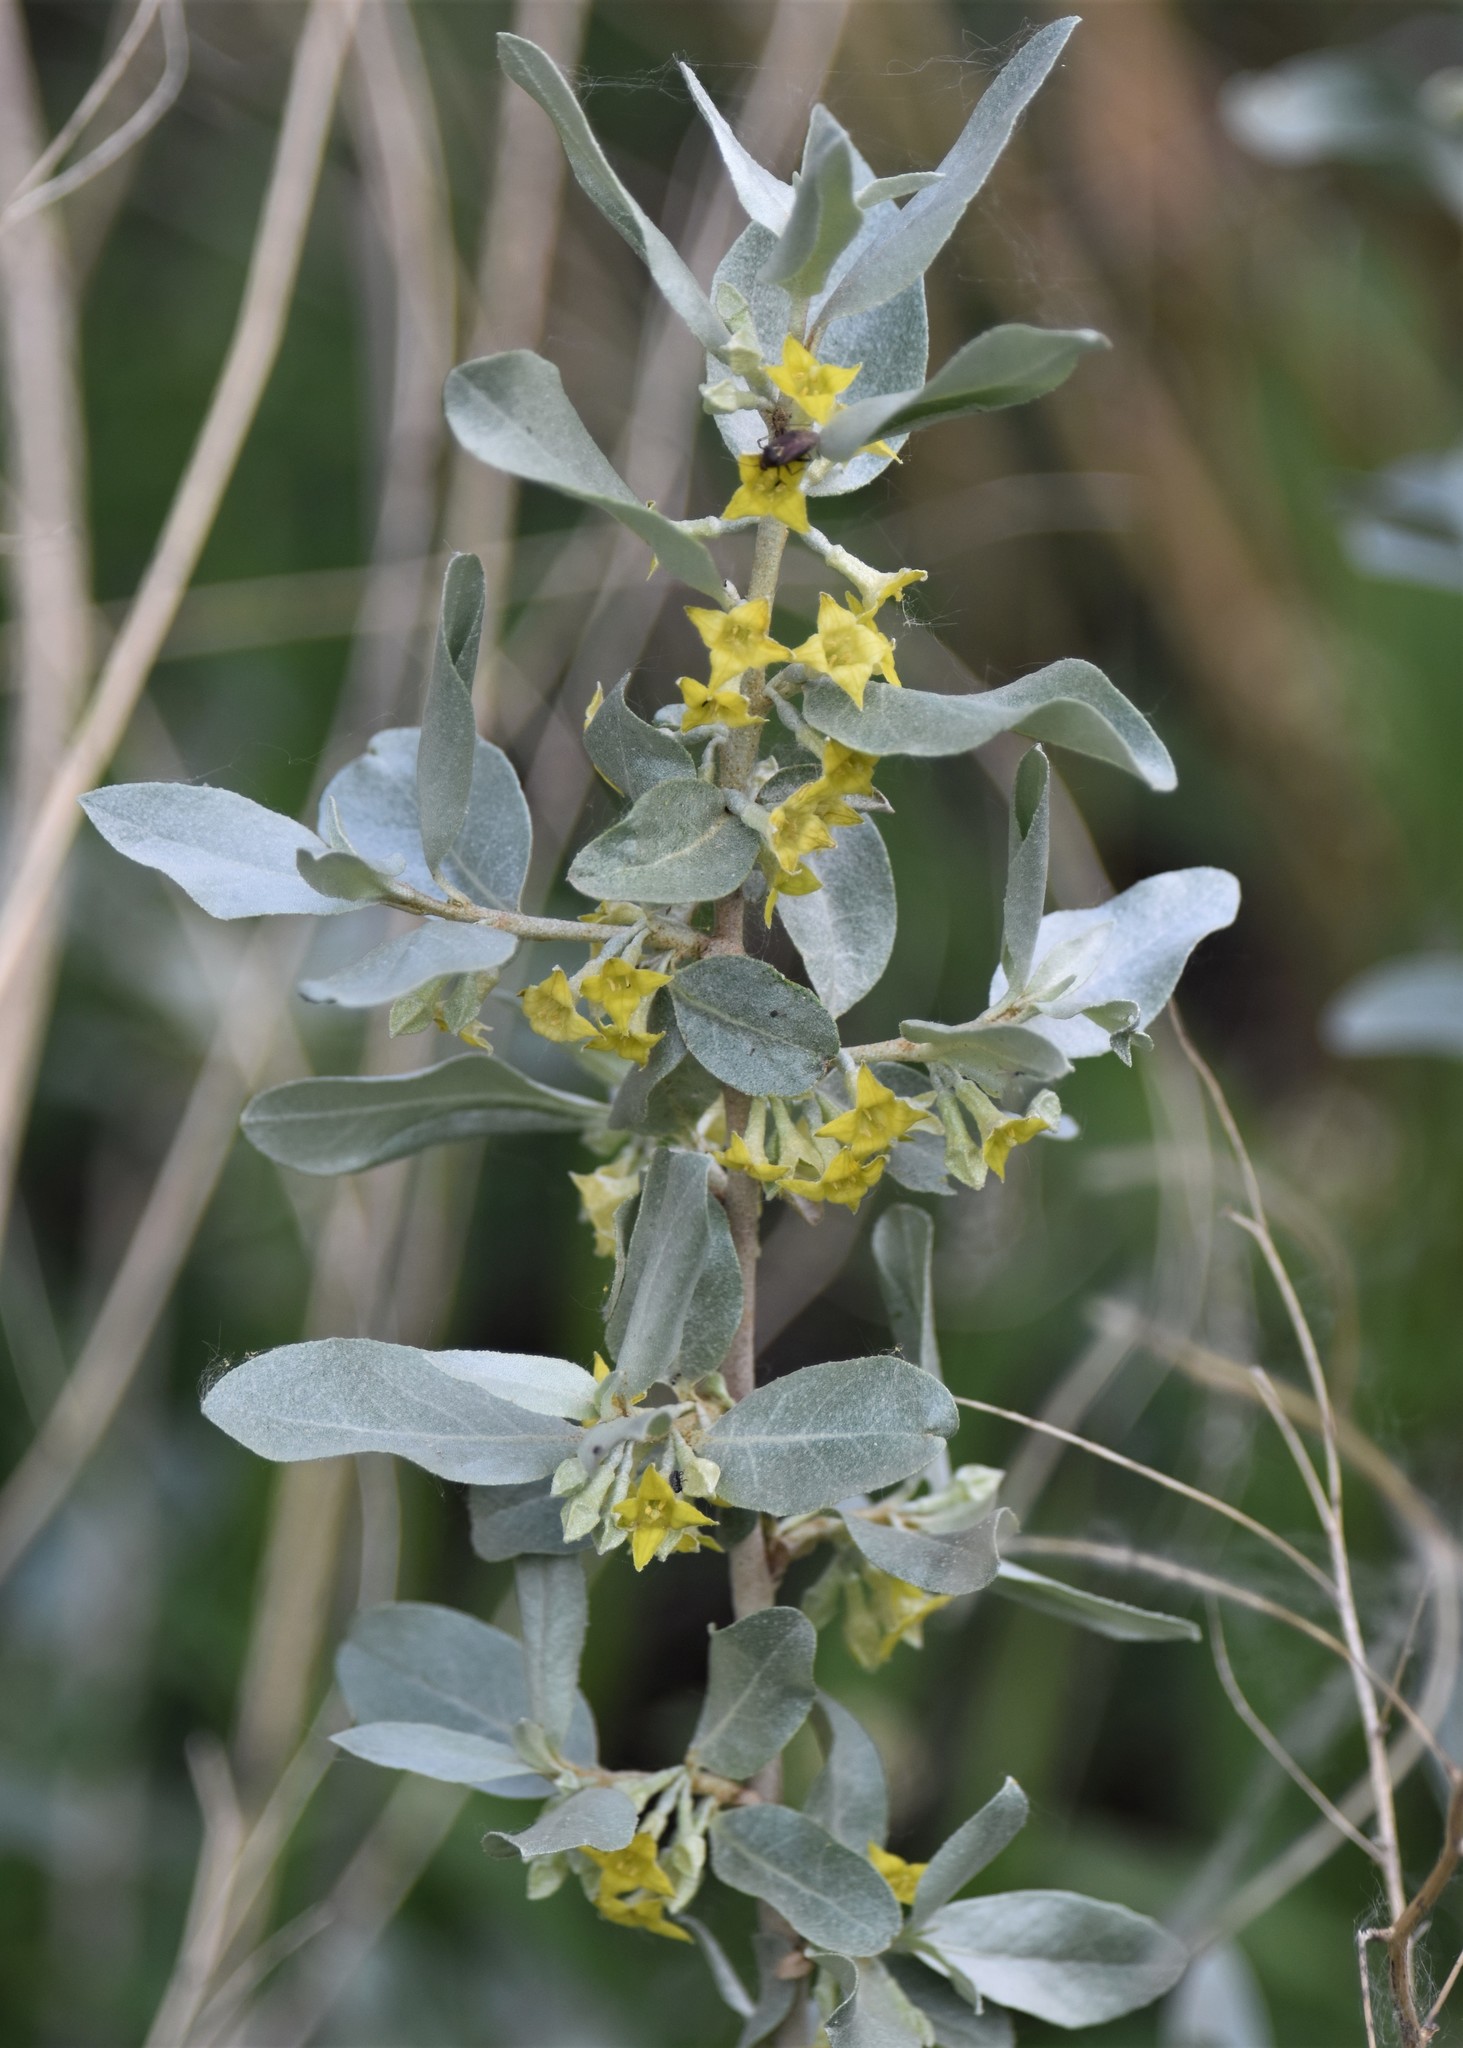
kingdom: Plantae
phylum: Tracheophyta
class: Magnoliopsida
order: Rosales
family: Elaeagnaceae
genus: Elaeagnus
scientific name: Elaeagnus commutata
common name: Silverberry
